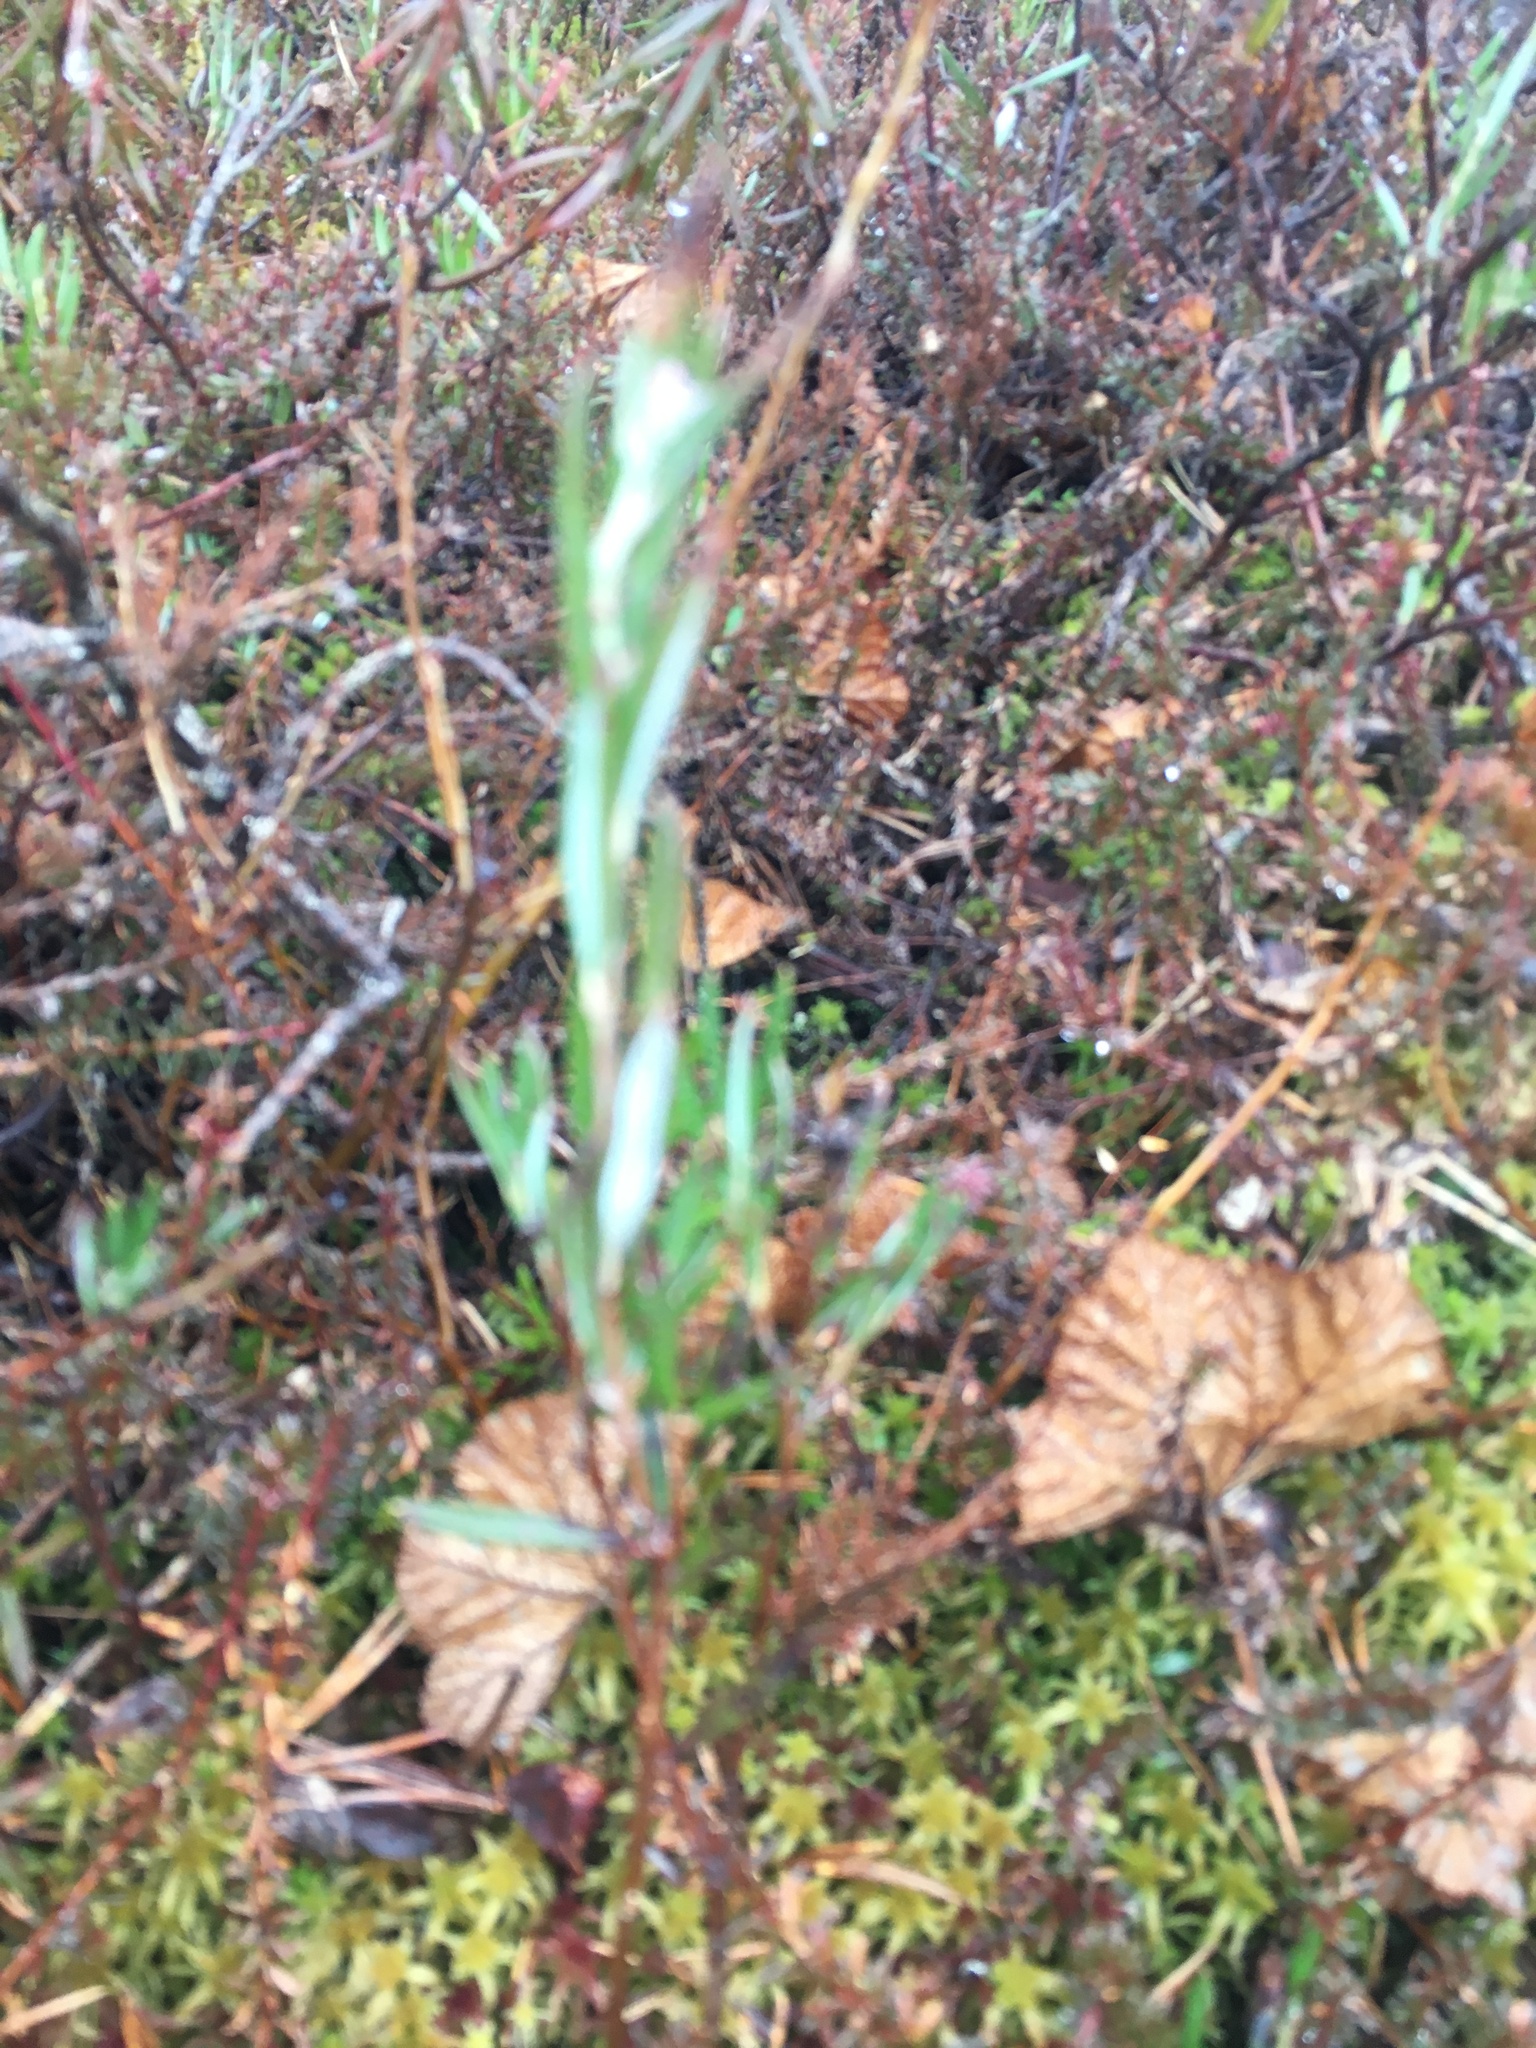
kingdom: Plantae
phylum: Tracheophyta
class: Magnoliopsida
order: Ericales
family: Ericaceae
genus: Andromeda
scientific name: Andromeda polifolia
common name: Bog-rosemary
